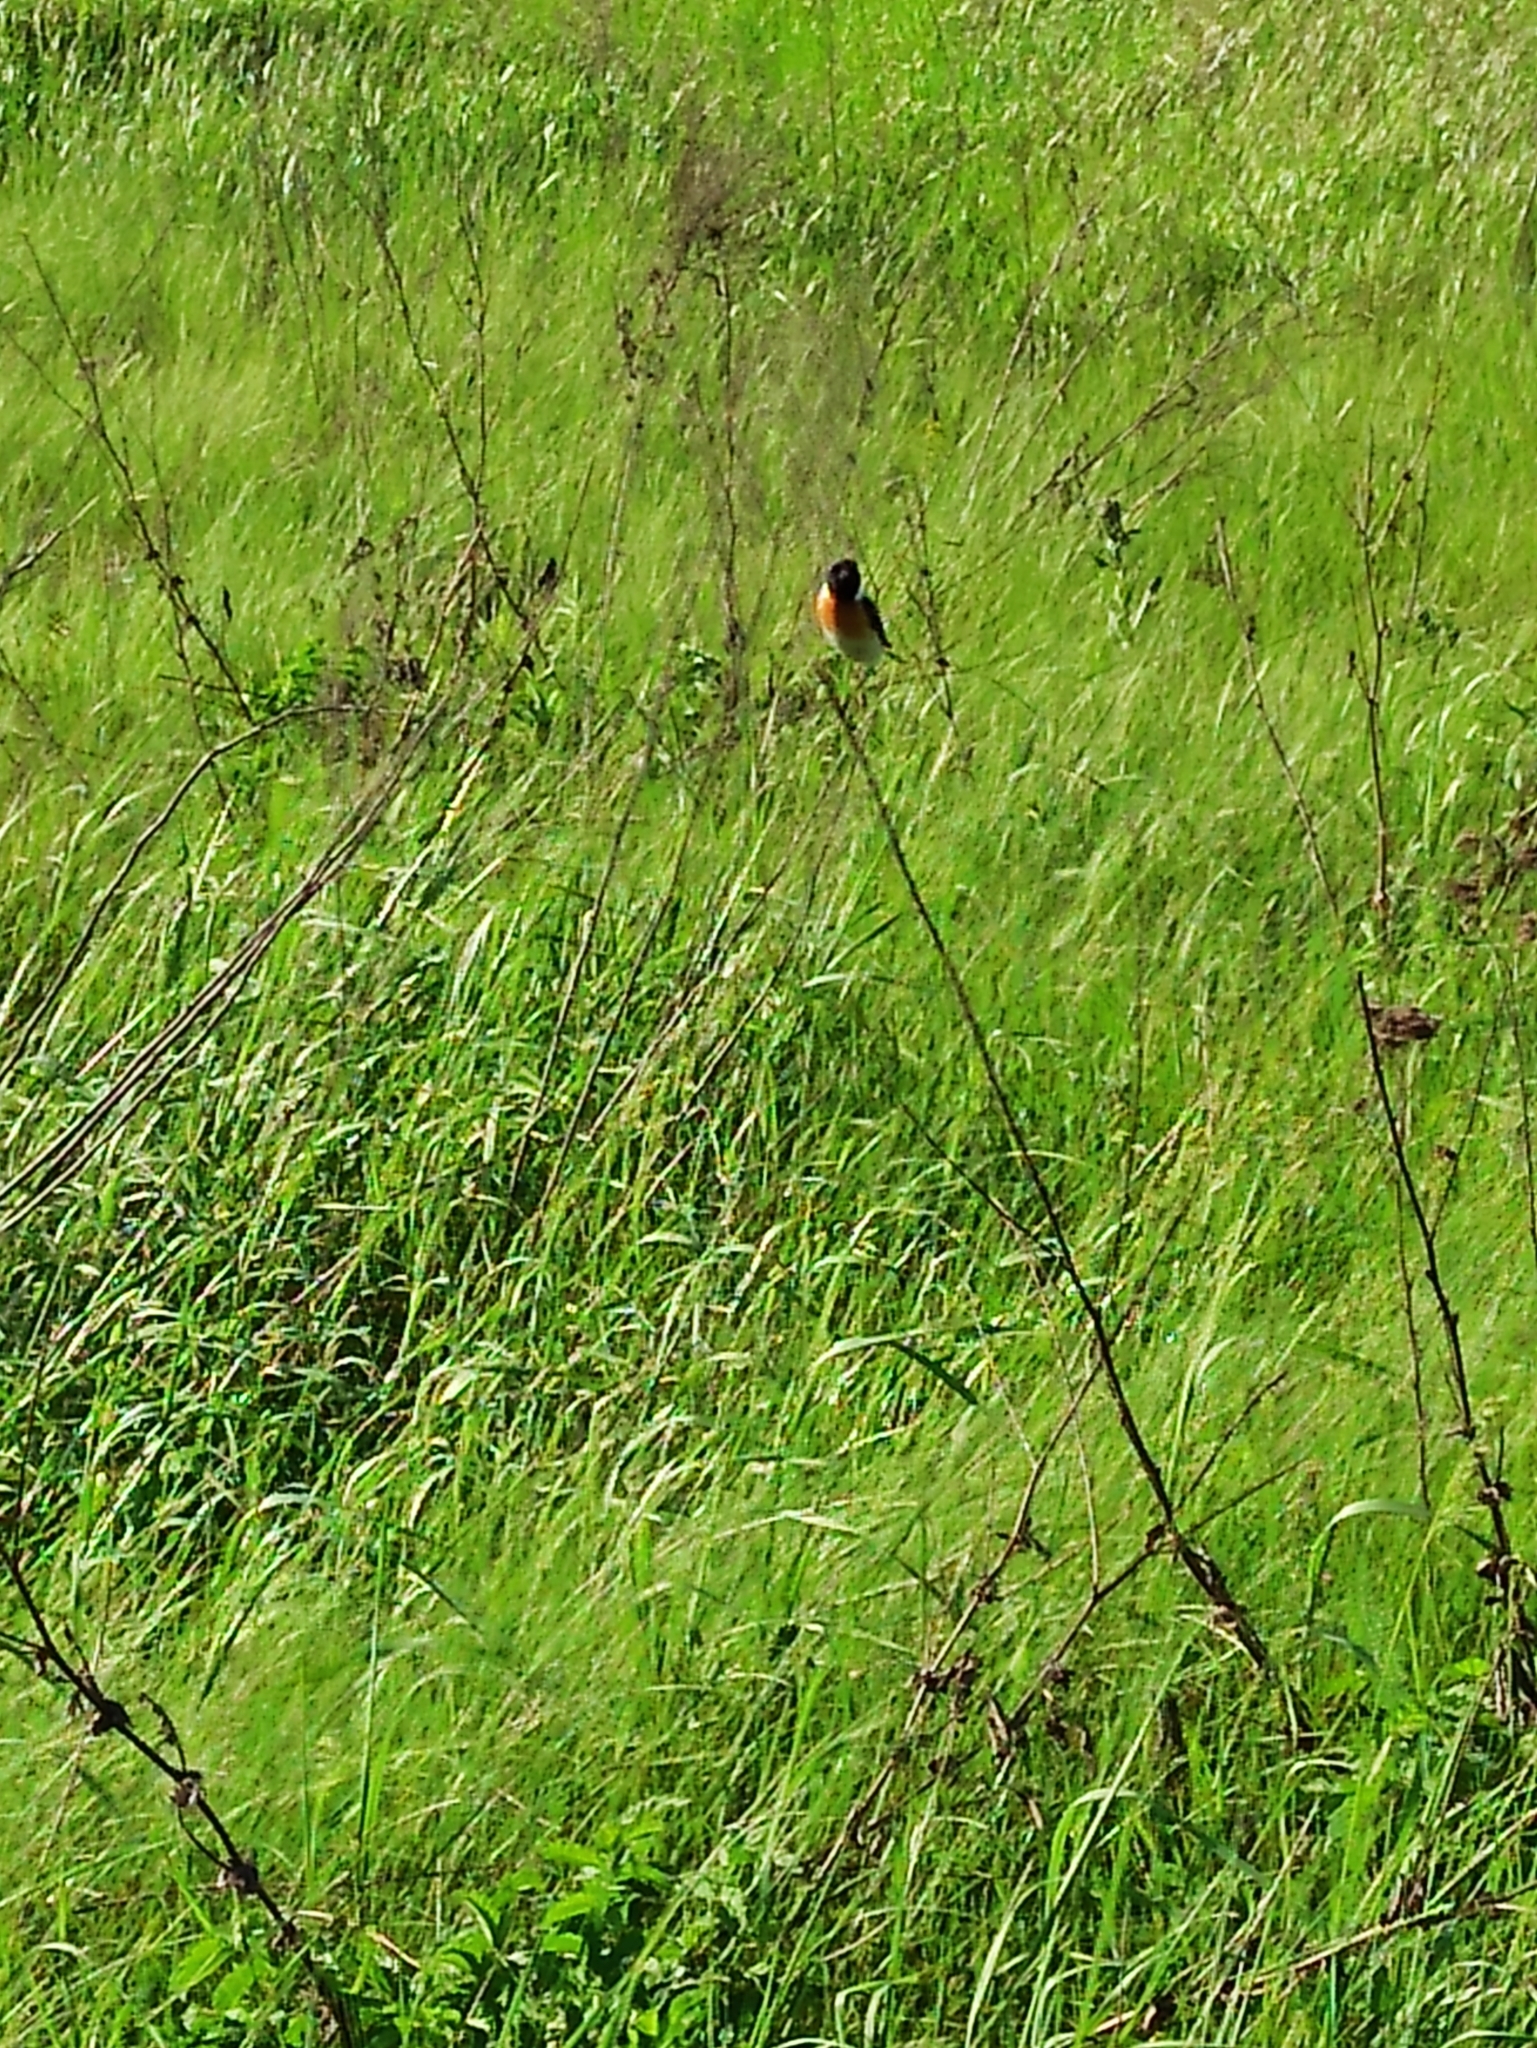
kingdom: Animalia
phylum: Chordata
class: Aves
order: Passeriformes
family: Muscicapidae
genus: Saxicola
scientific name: Saxicola maurus
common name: Siberian stonechat
